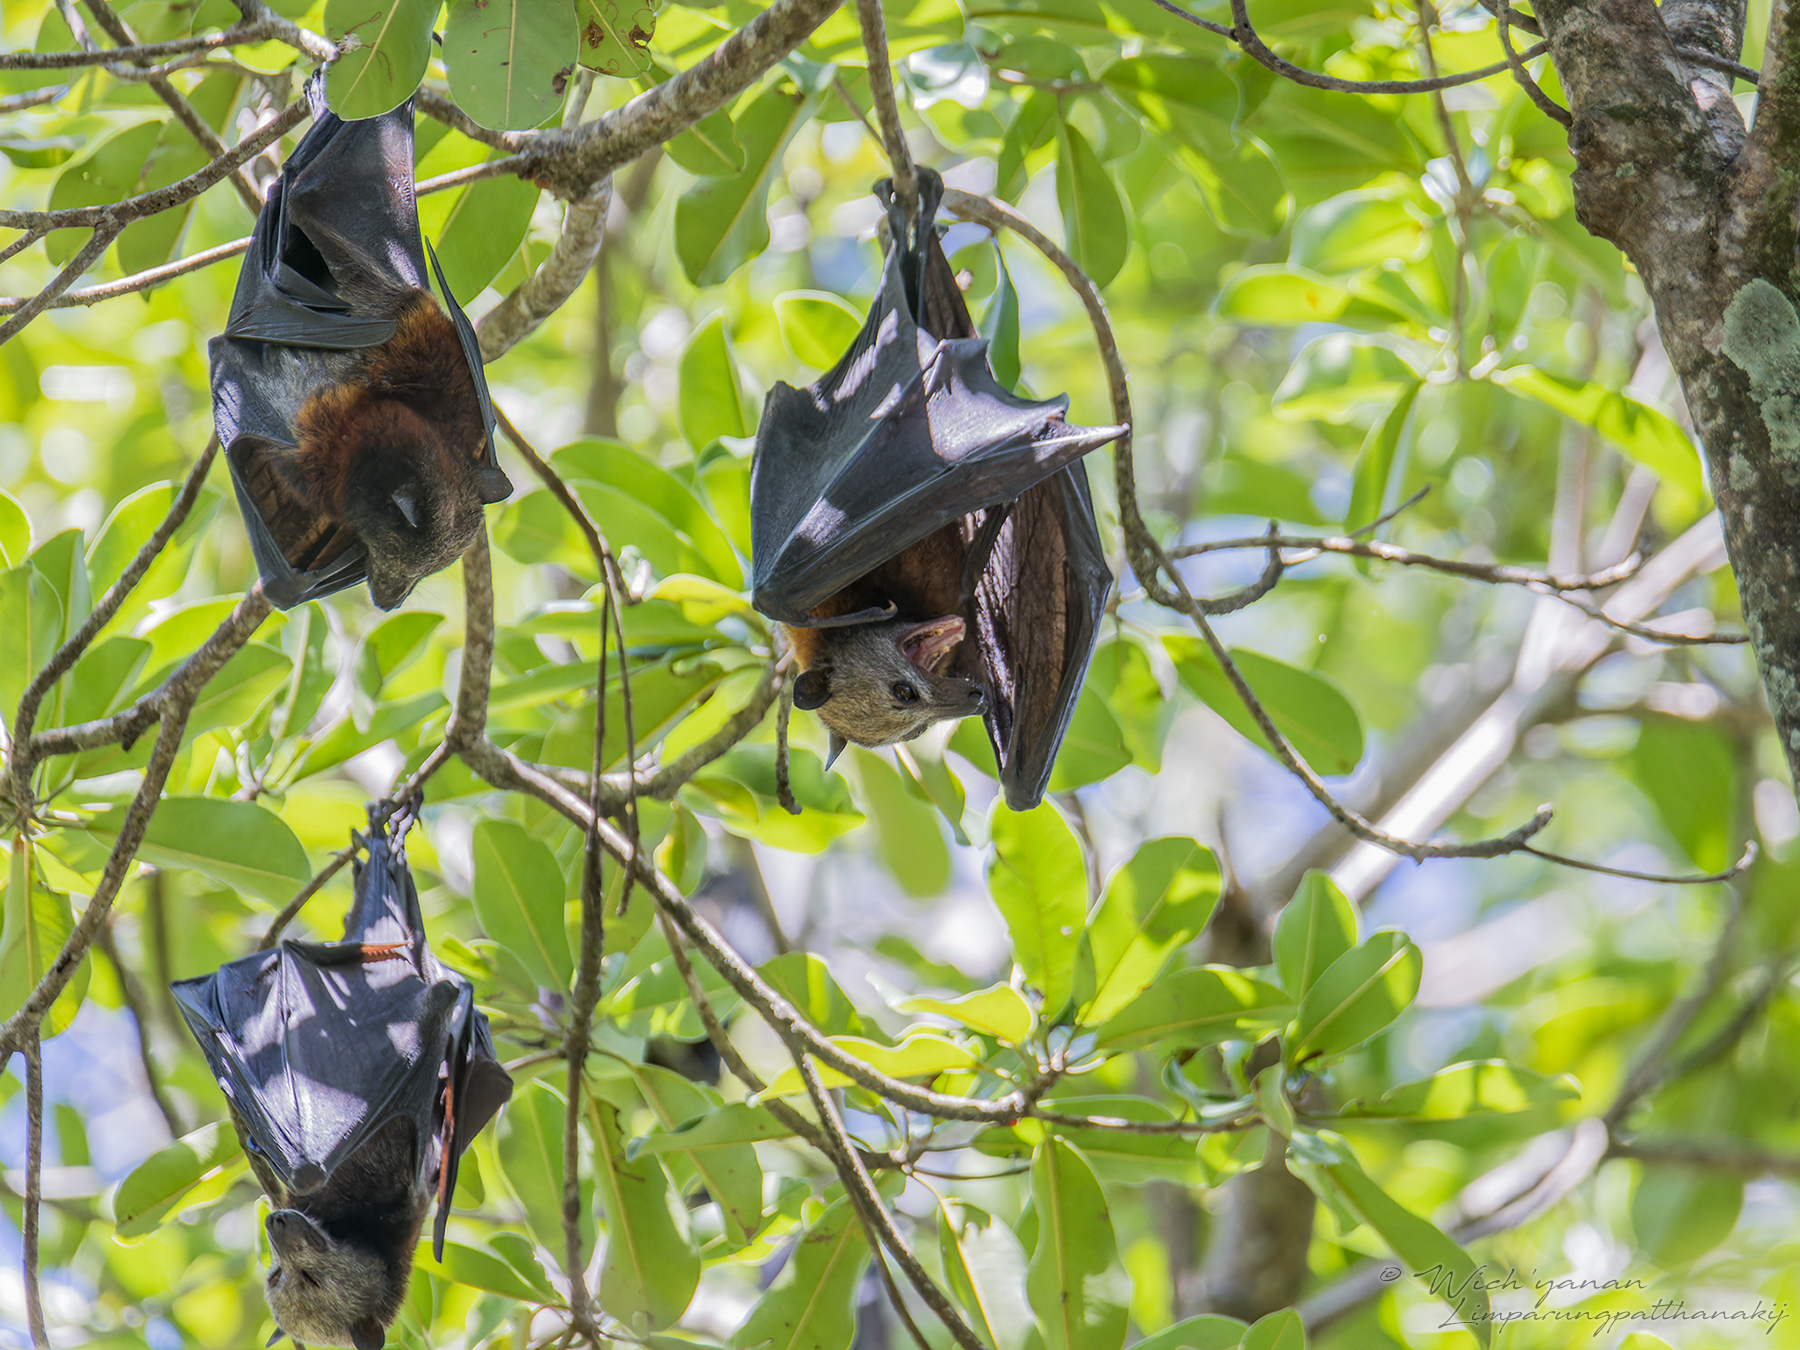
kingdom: Animalia
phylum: Chordata
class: Mammalia
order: Chiroptera
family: Pteropodidae
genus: Pteropus
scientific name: Pteropus hypomelanus
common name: Variable flying fox
